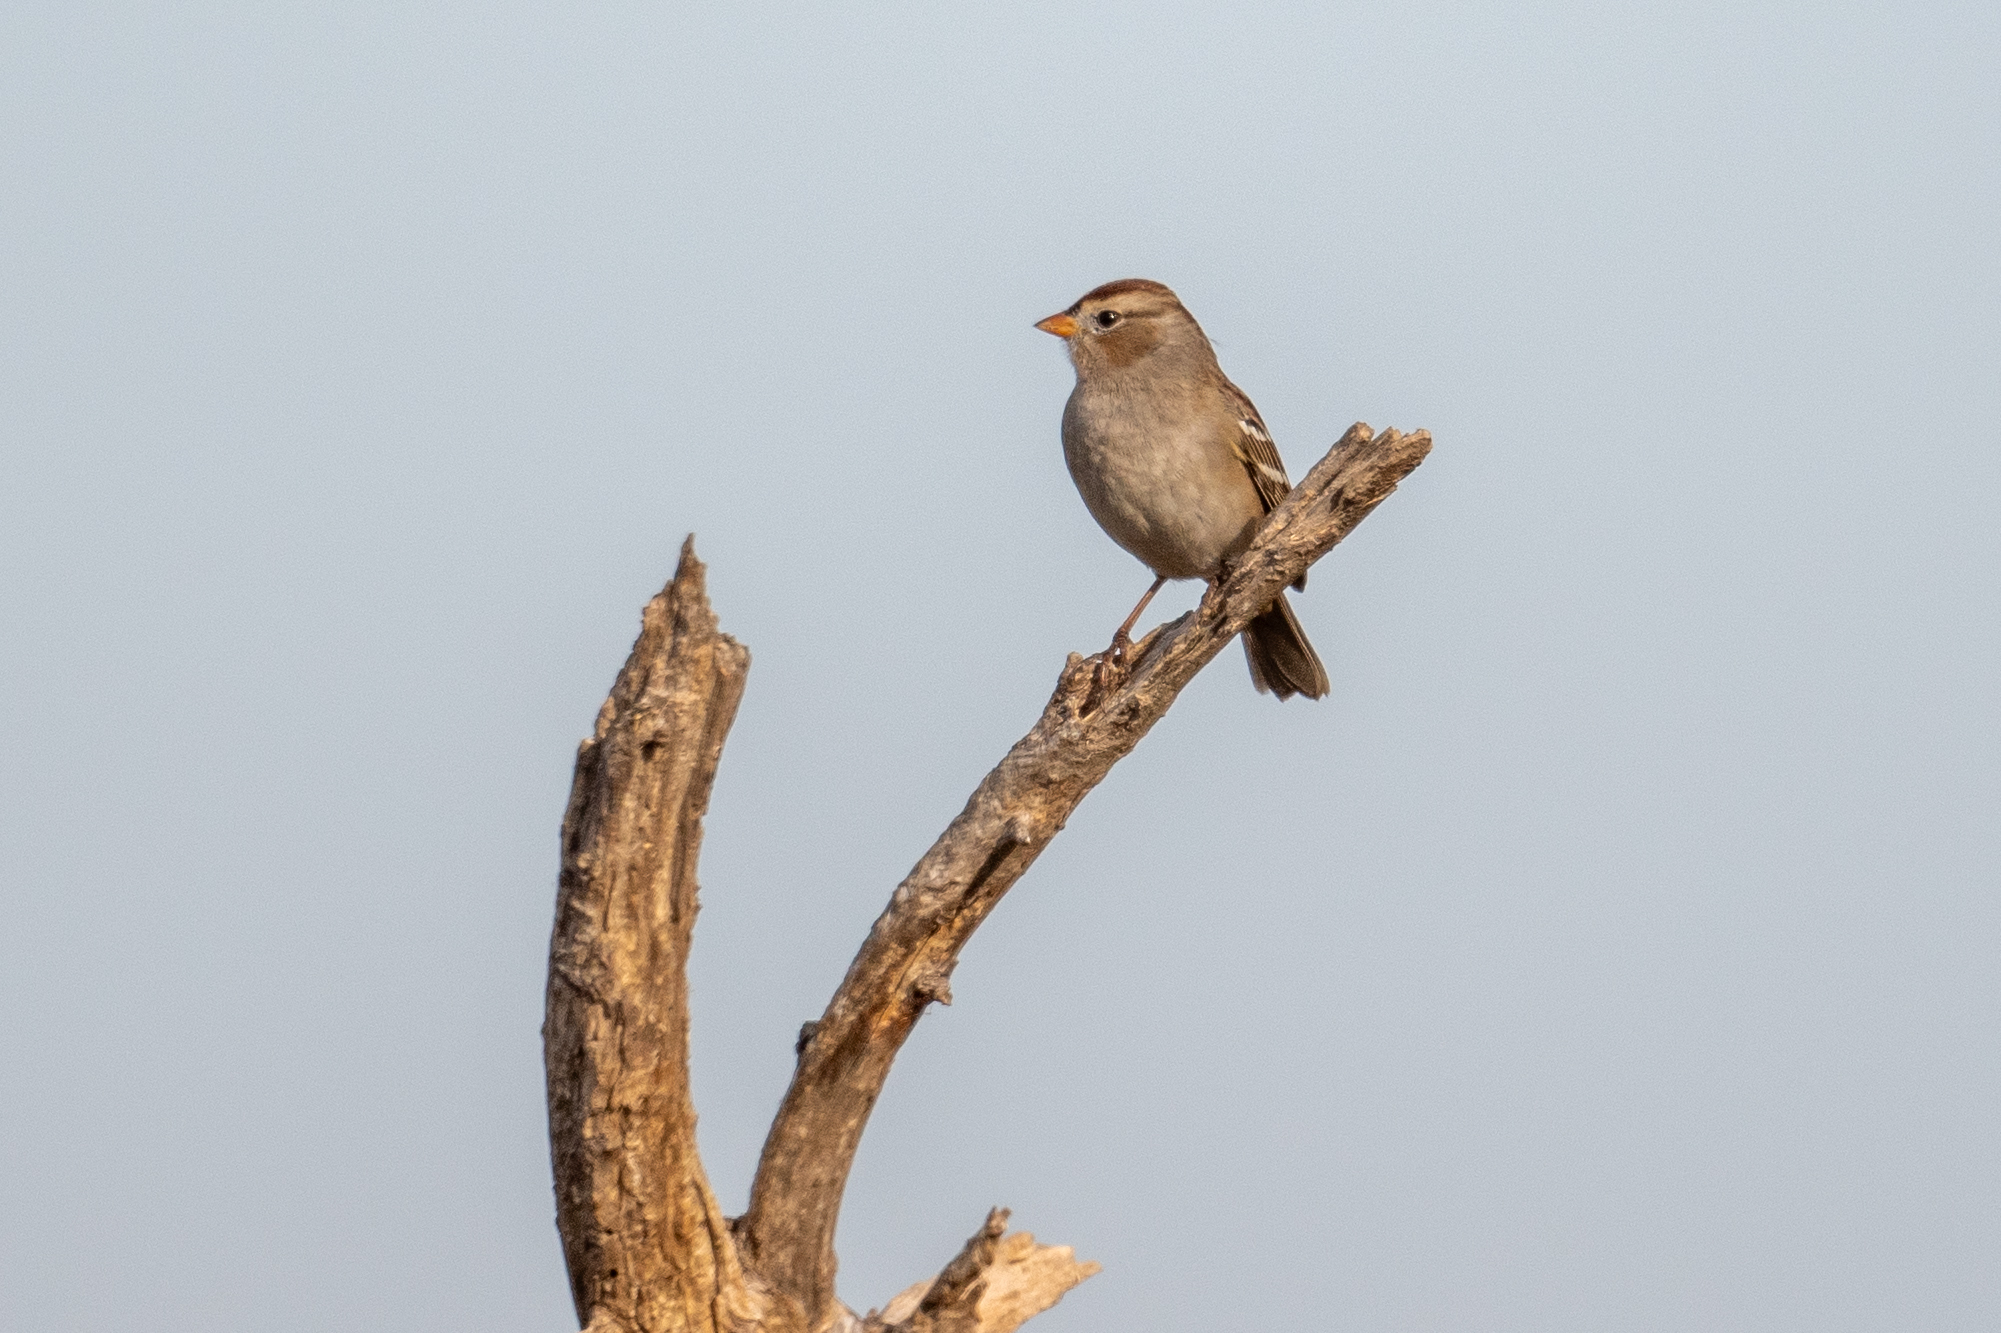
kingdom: Animalia
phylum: Chordata
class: Aves
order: Passeriformes
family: Passerellidae
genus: Zonotrichia
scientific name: Zonotrichia leucophrys
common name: White-crowned sparrow
